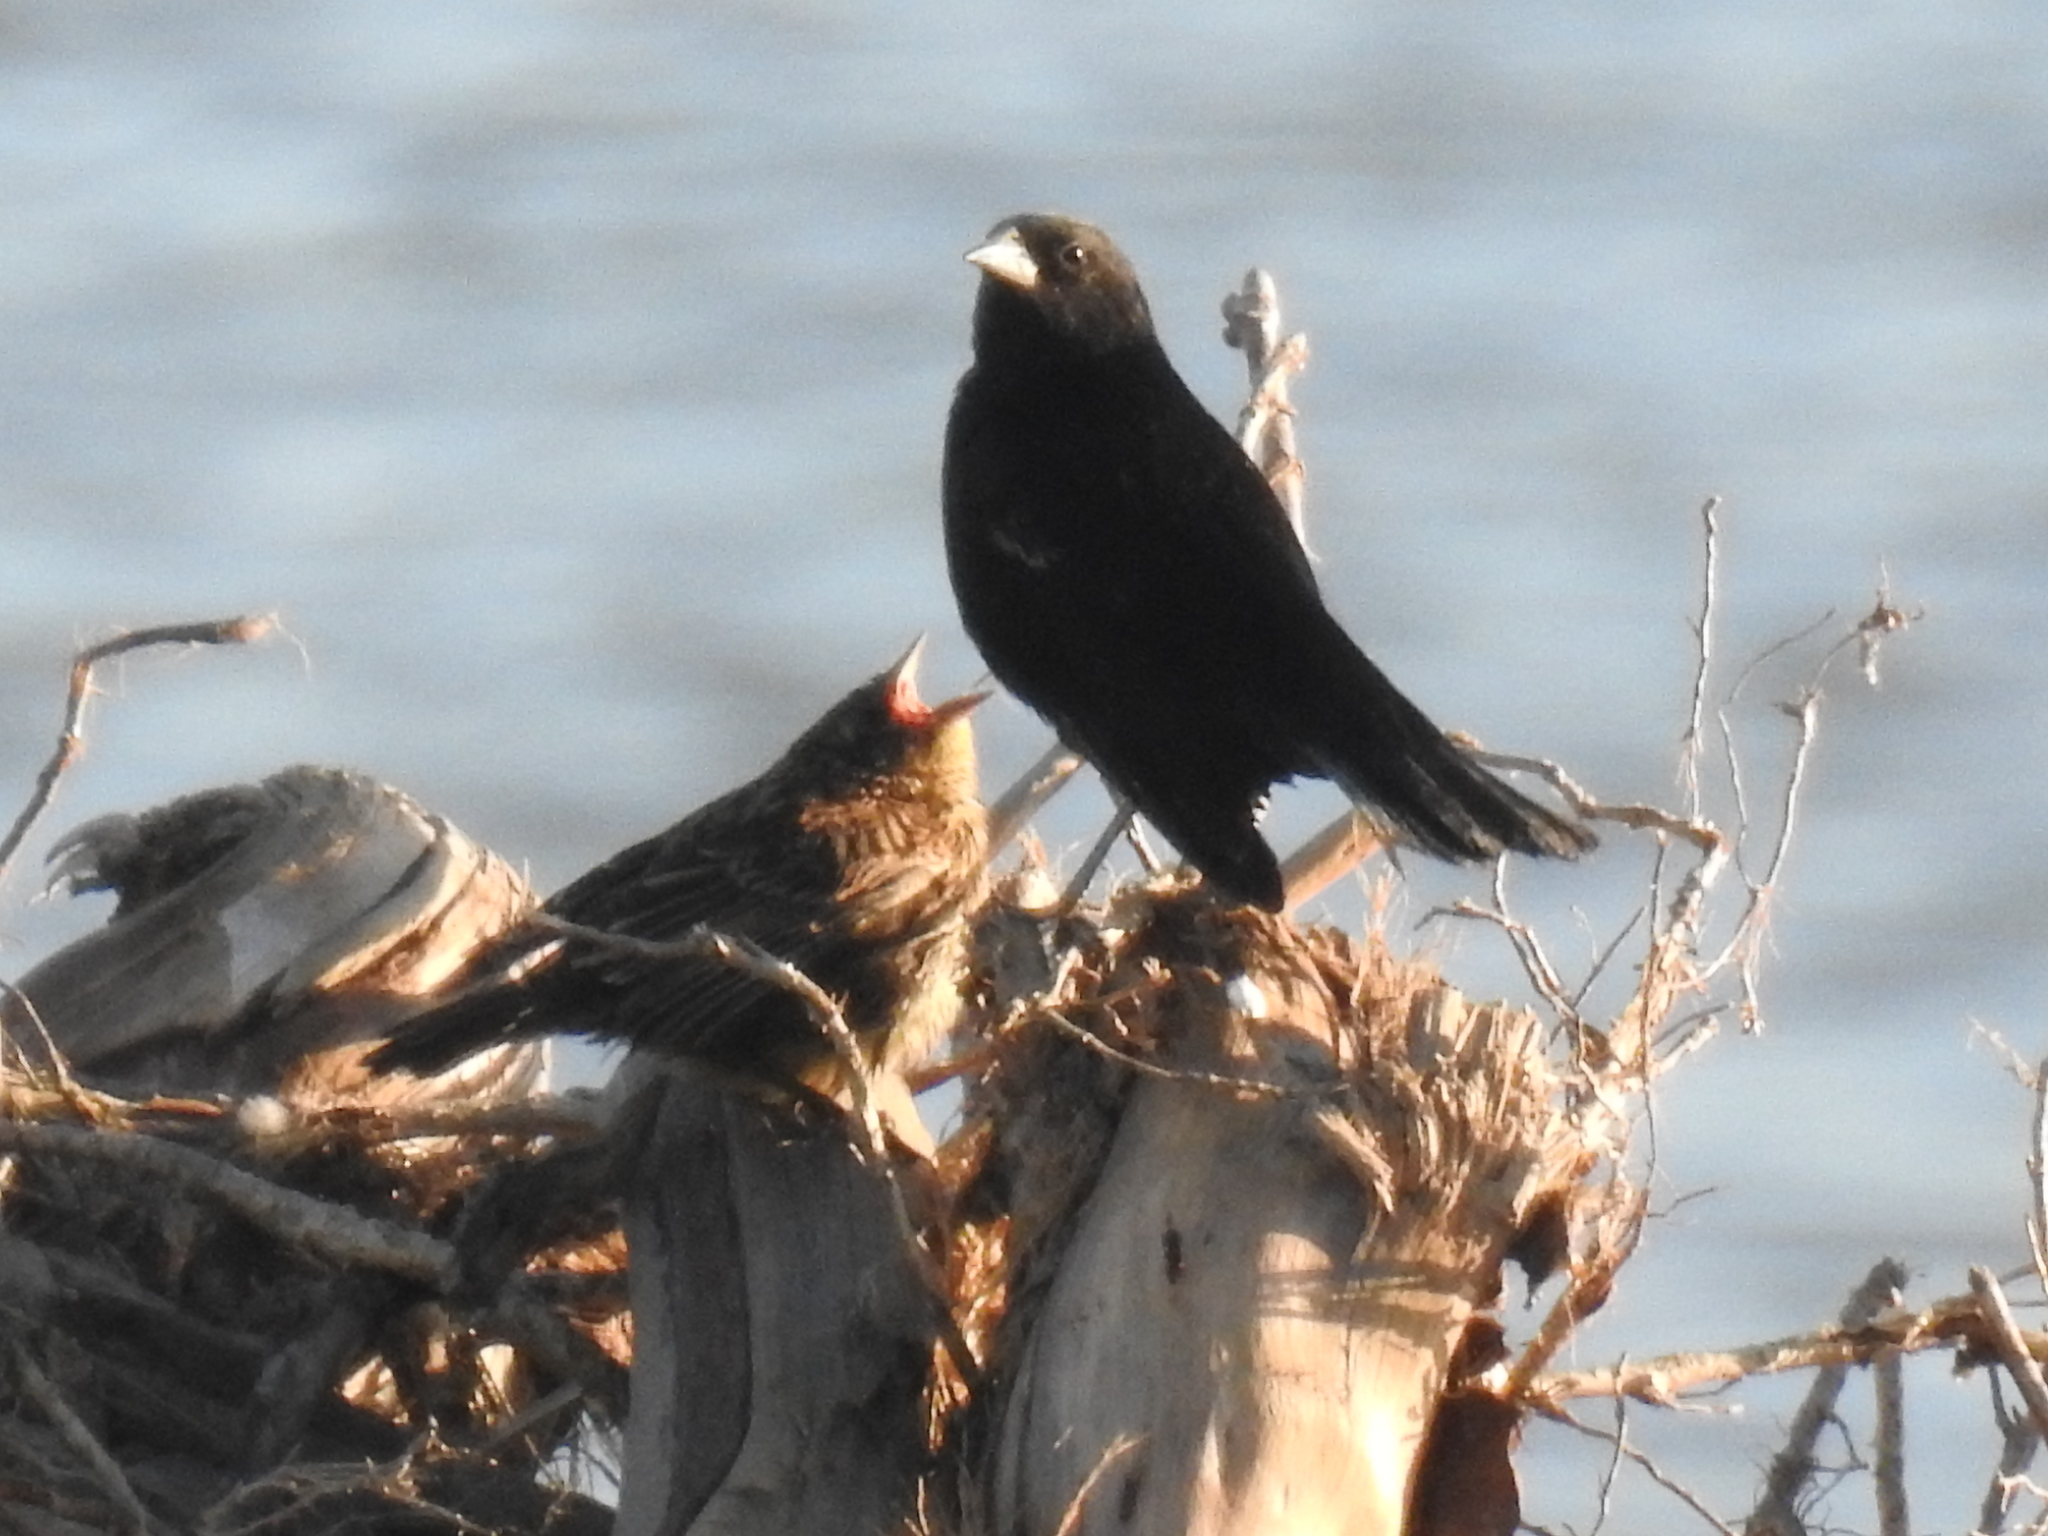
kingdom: Animalia
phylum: Chordata
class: Aves
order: Passeriformes
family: Icteridae
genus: Agelaius
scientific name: Agelaius phoeniceus
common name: Red-winged blackbird
